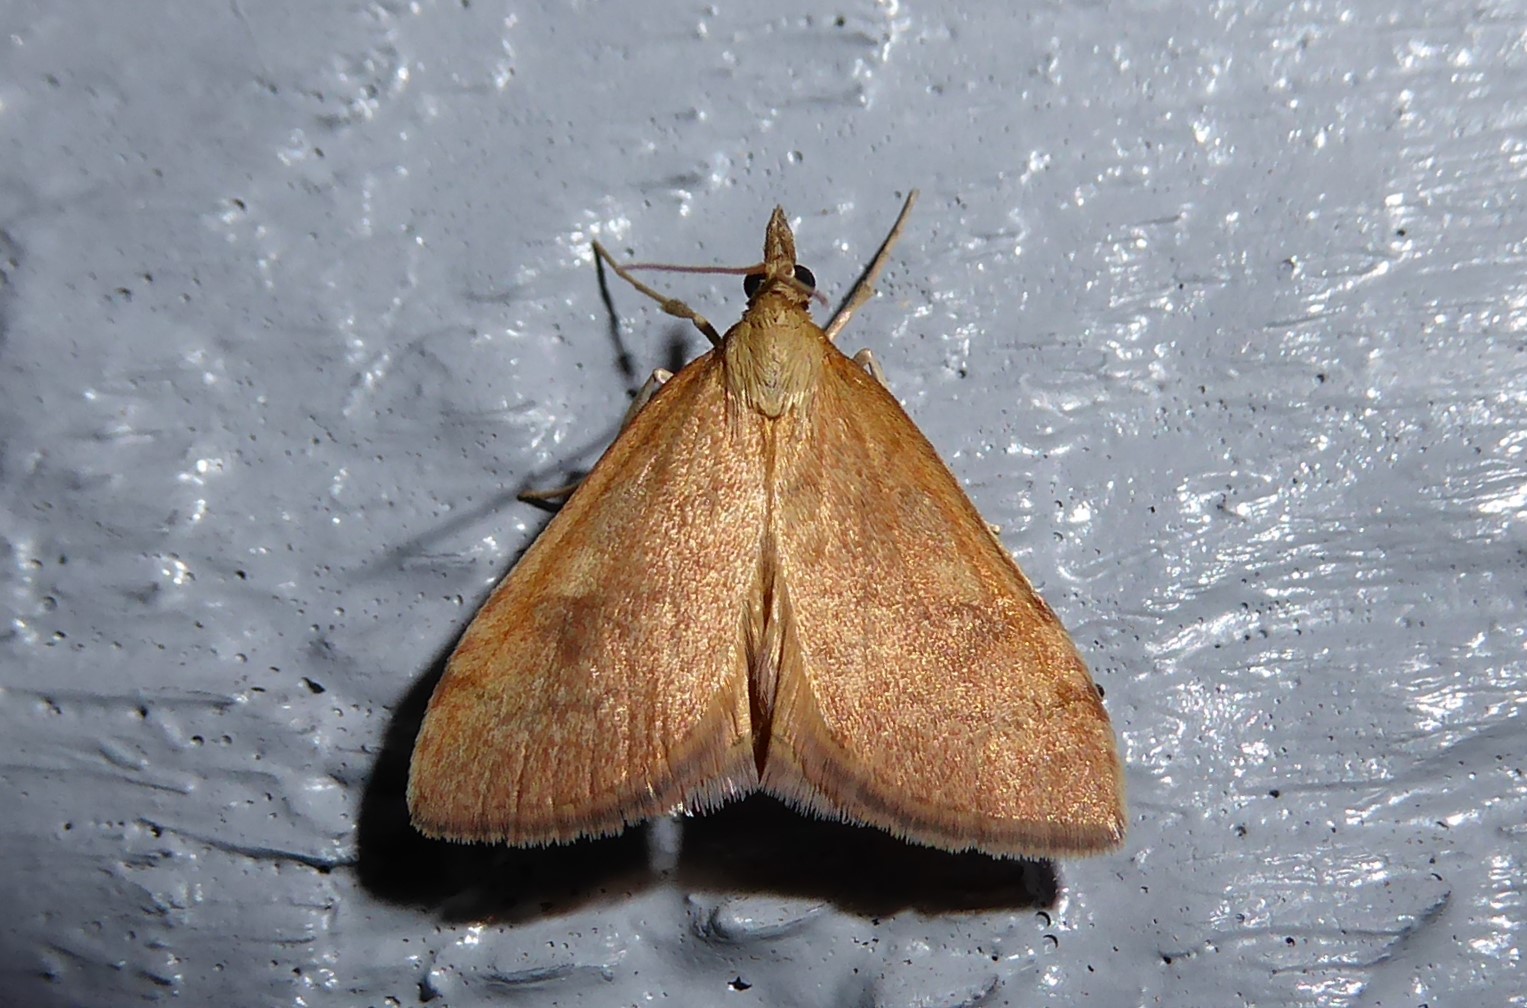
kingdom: Animalia
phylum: Arthropoda
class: Insecta
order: Lepidoptera
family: Crambidae
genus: Udea
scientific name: Udea Mnesictena flavidalis
